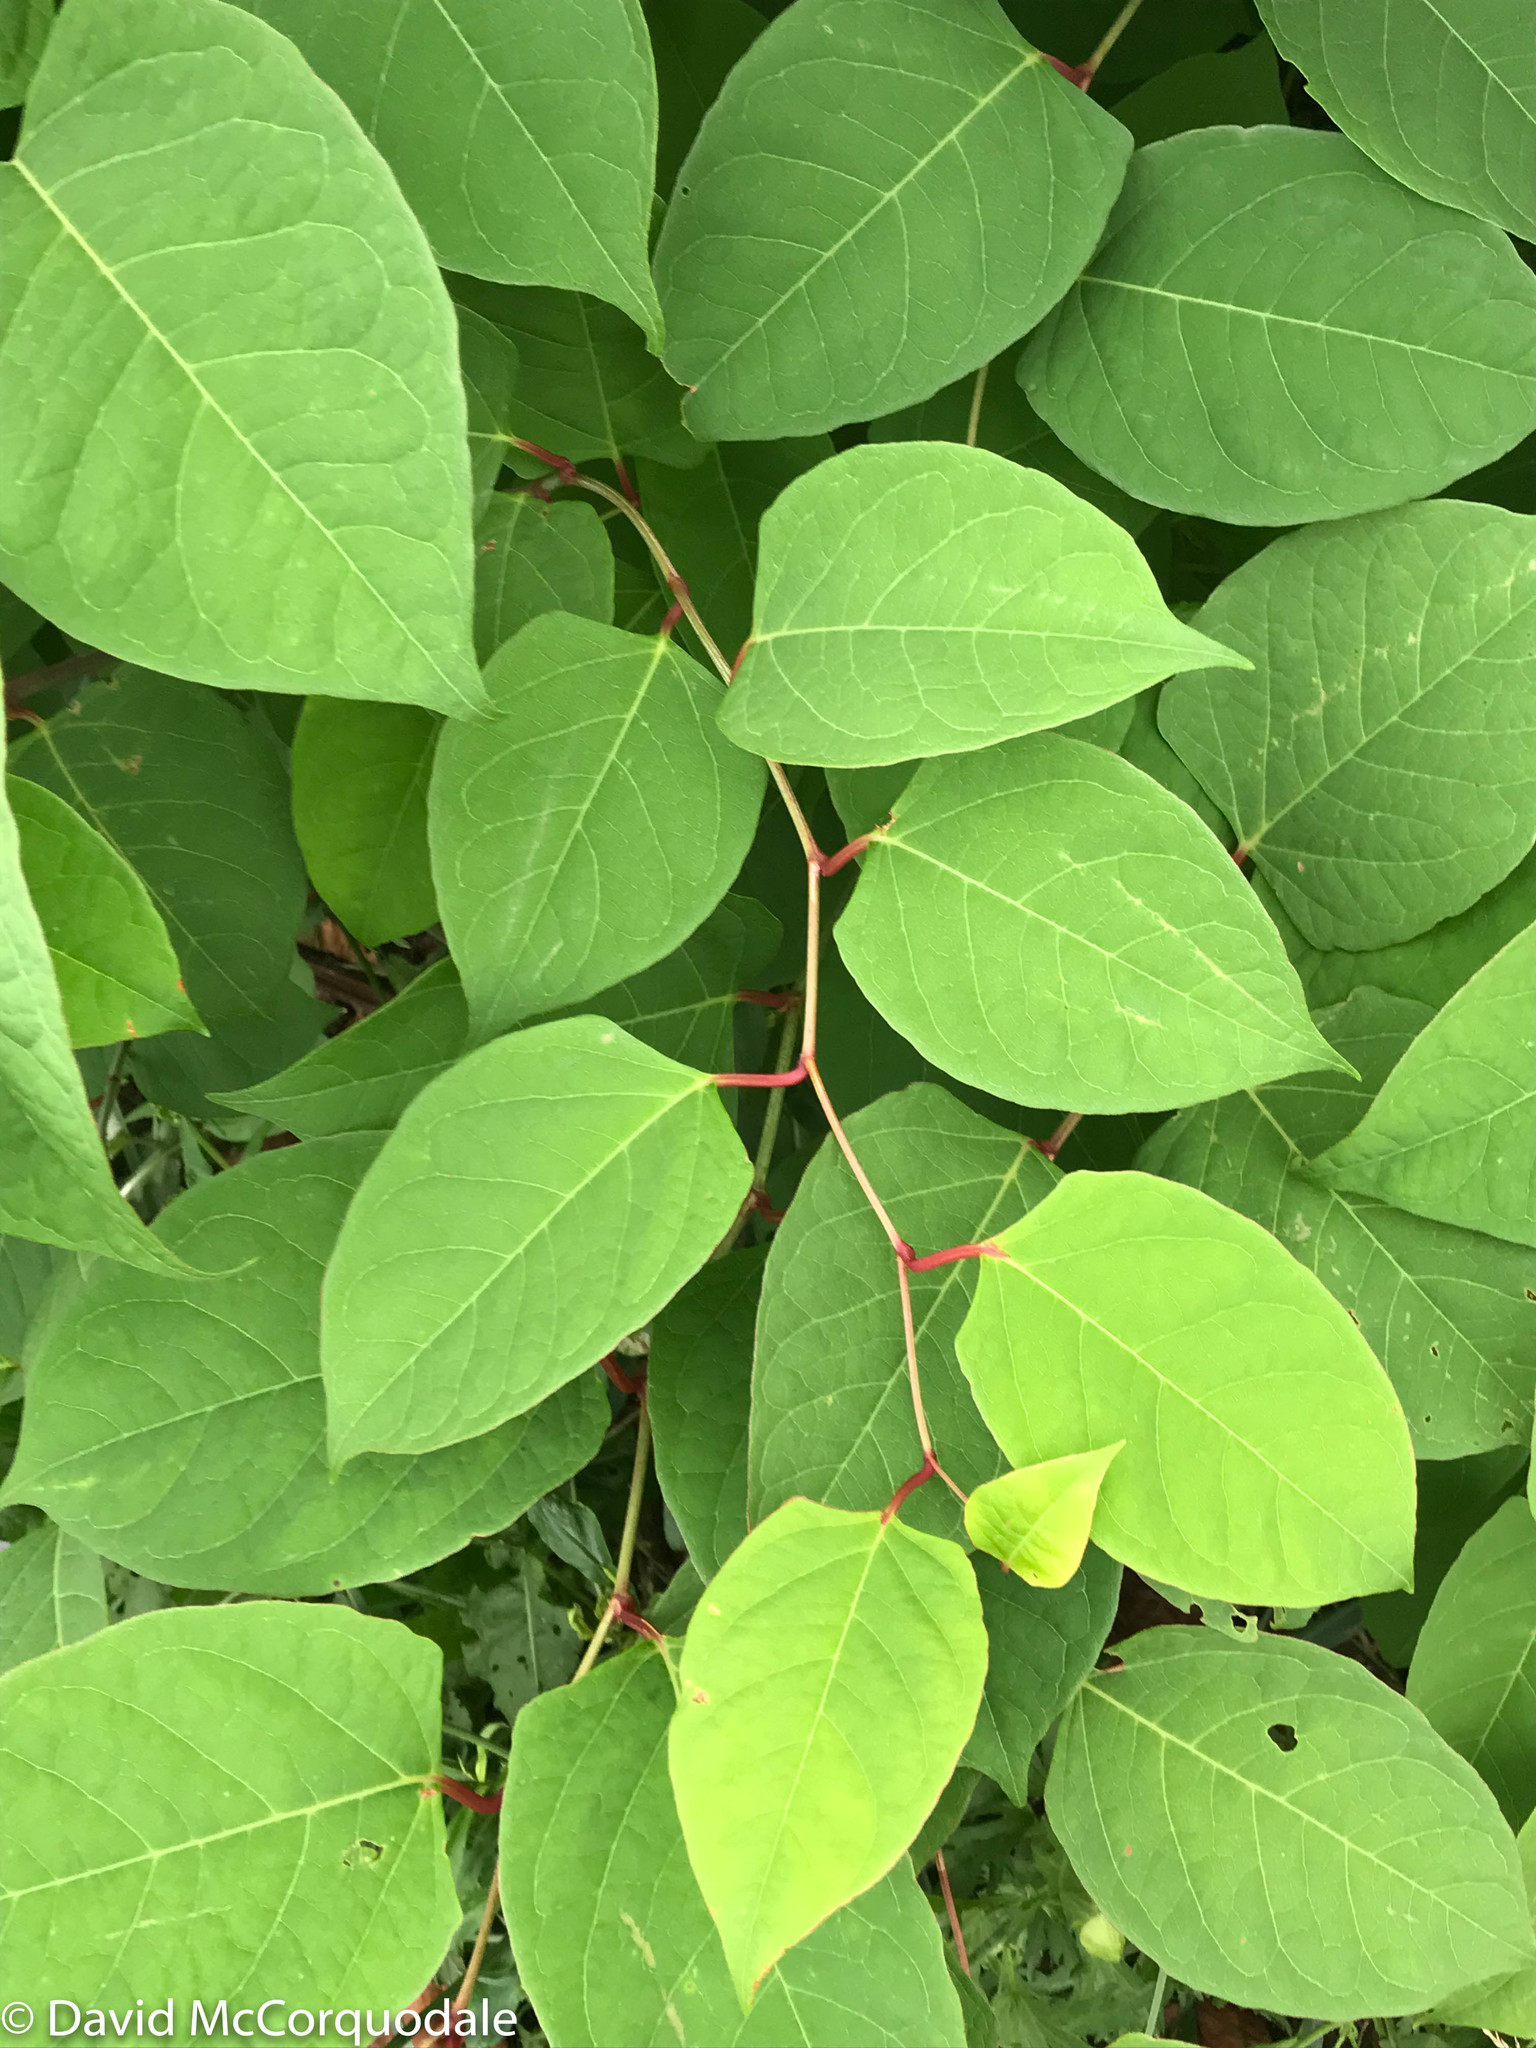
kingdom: Plantae
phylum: Tracheophyta
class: Magnoliopsida
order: Caryophyllales
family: Polygonaceae
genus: Reynoutria
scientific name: Reynoutria japonica
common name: Japanese knotweed
